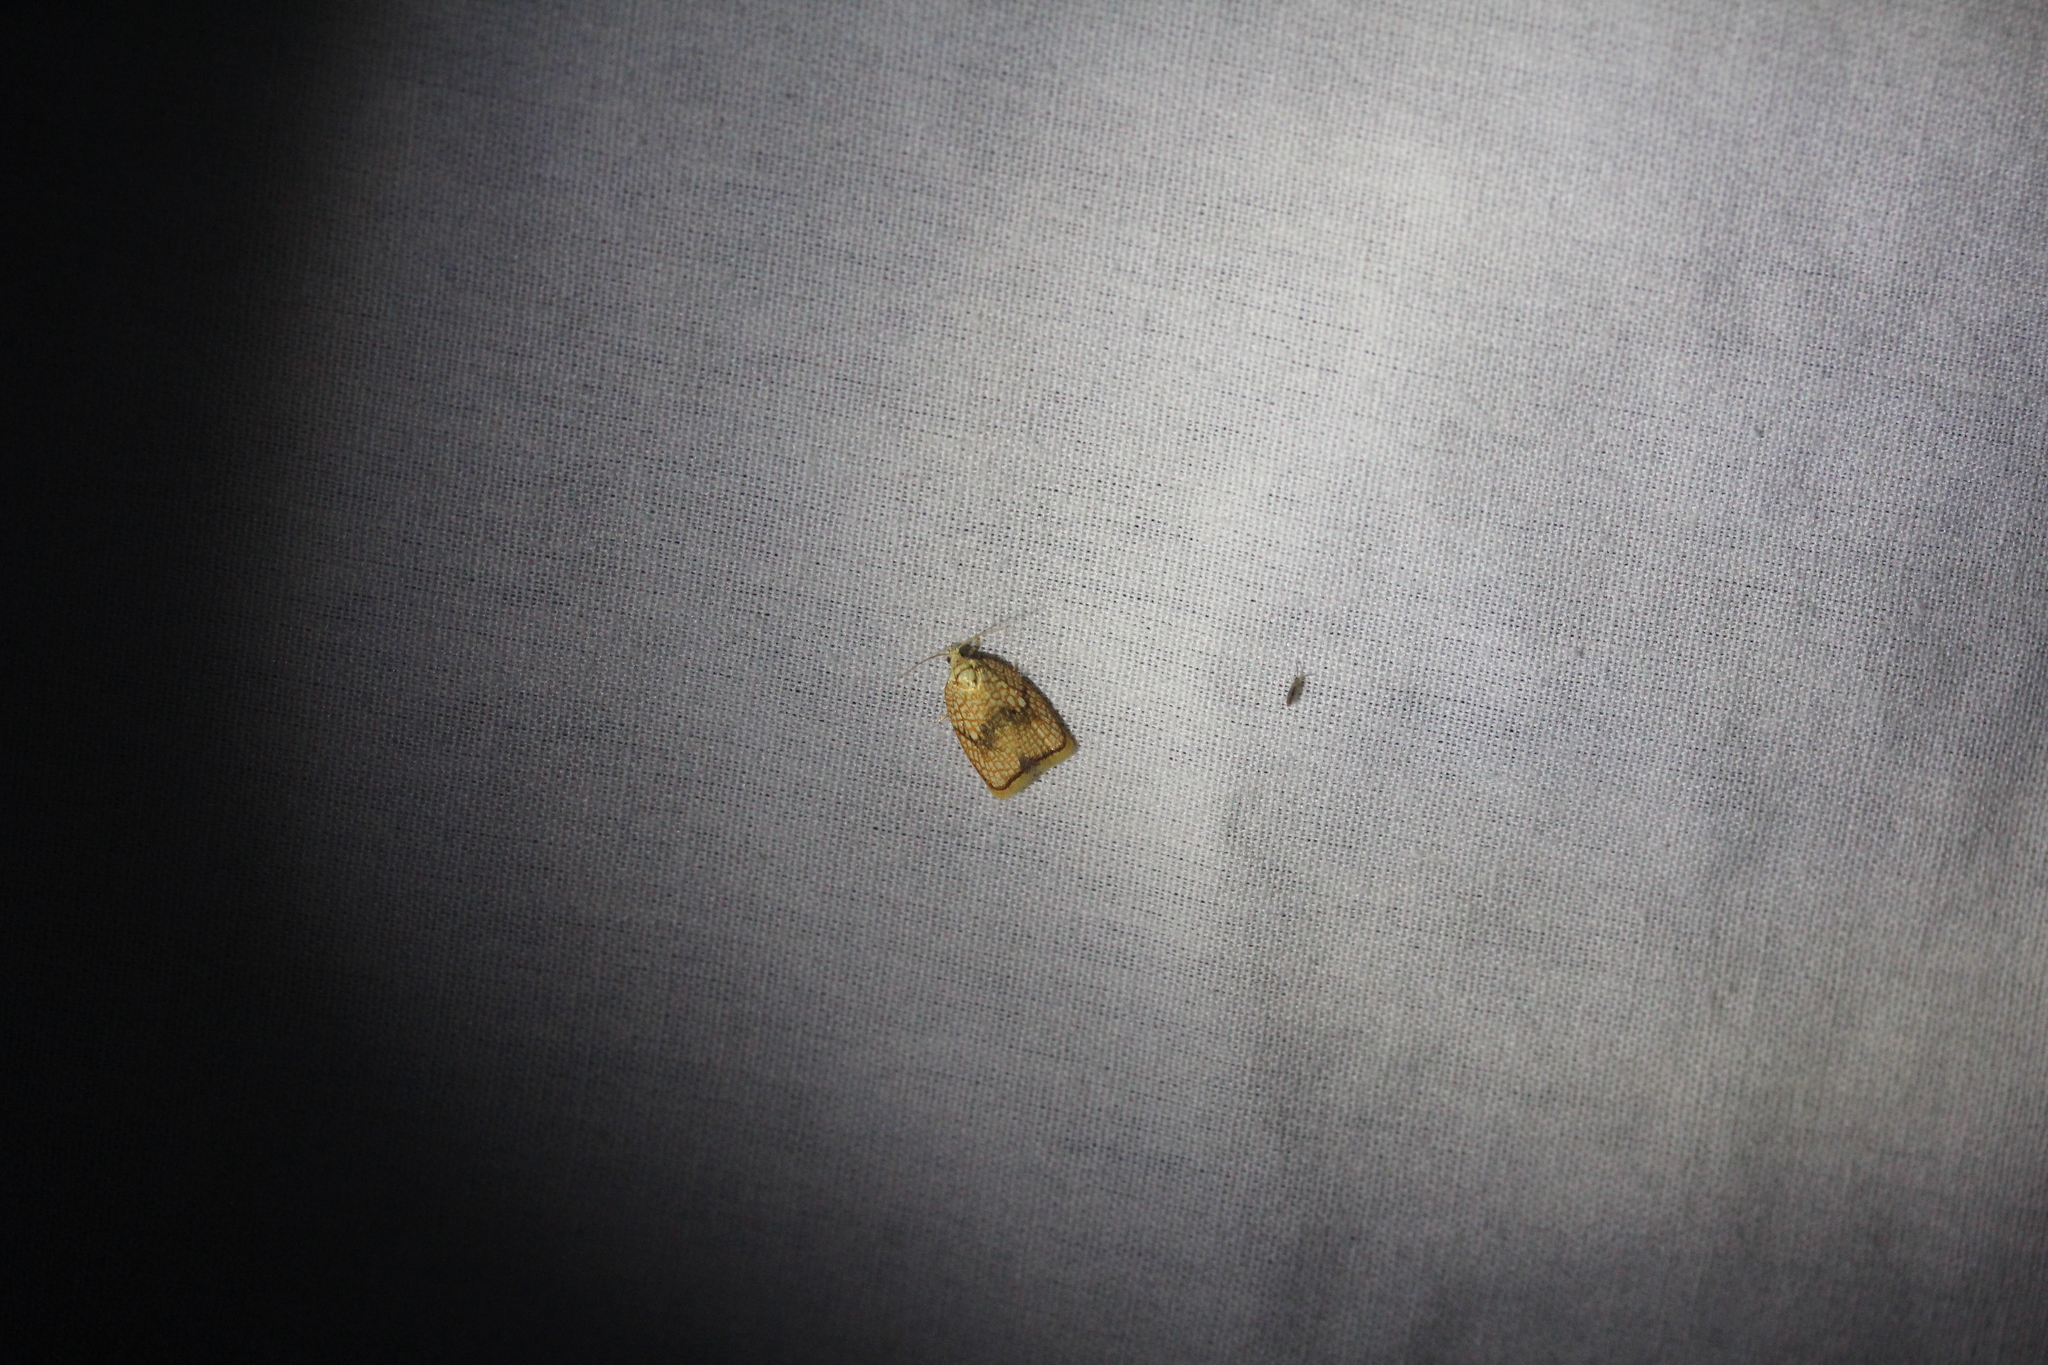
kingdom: Animalia
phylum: Arthropoda
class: Insecta
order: Lepidoptera
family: Tortricidae
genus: Acleris
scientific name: Acleris forsskaleana
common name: Maple button
